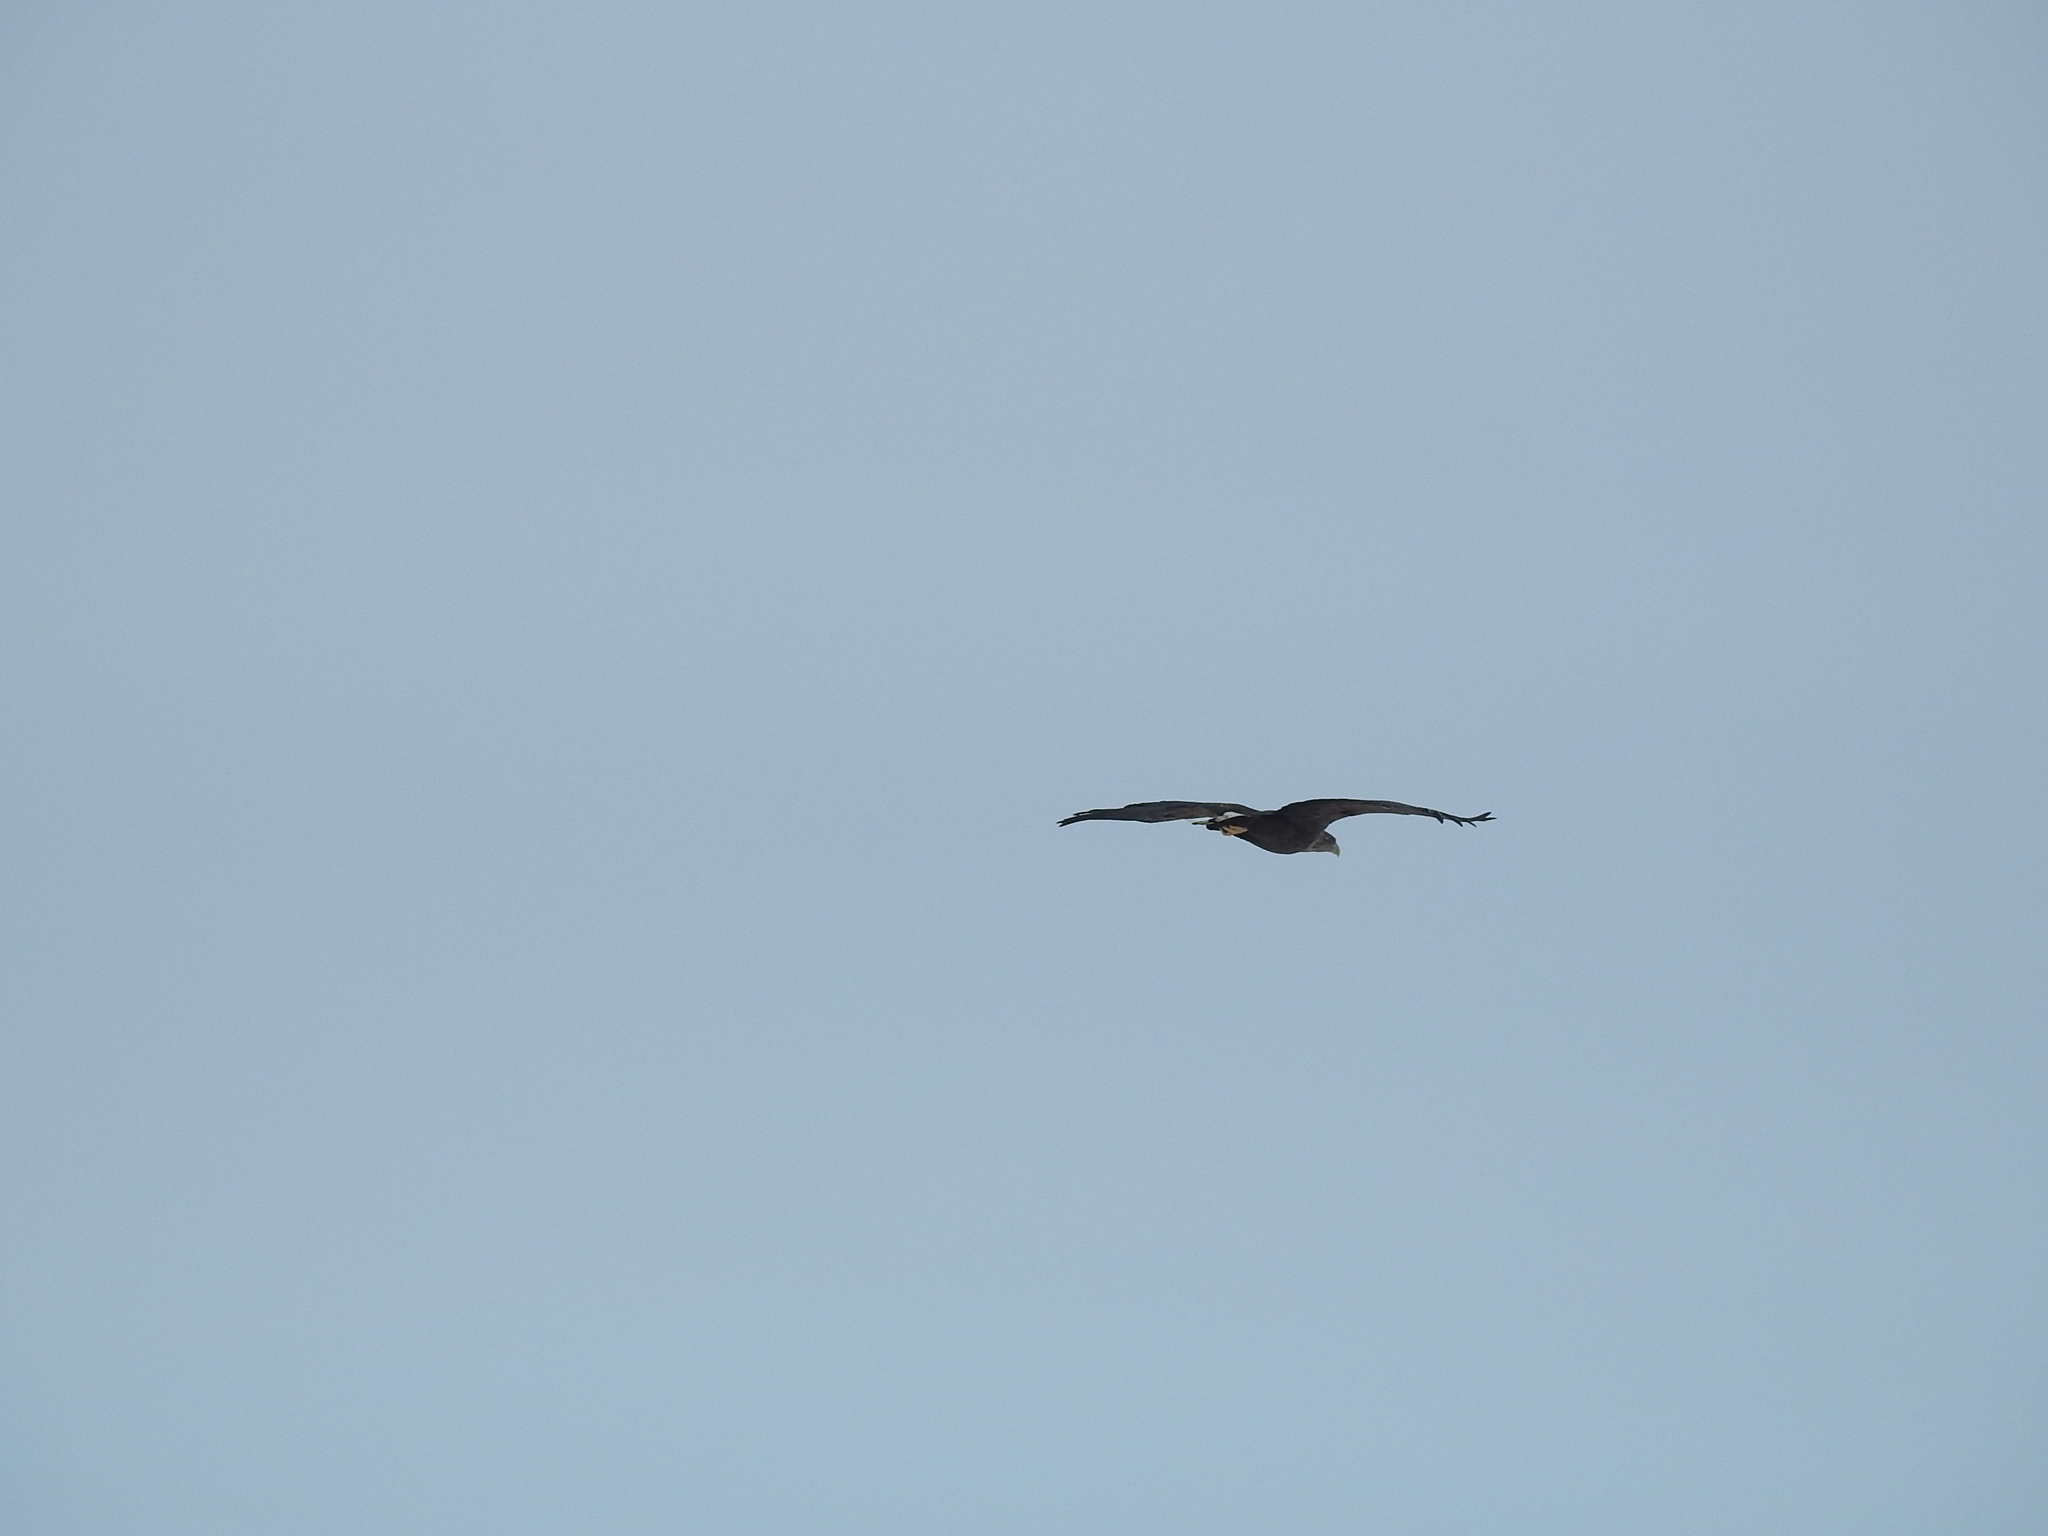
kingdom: Animalia
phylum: Chordata
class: Aves
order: Accipitriformes
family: Accipitridae
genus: Haliaeetus
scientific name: Haliaeetus albicilla
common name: White-tailed eagle
